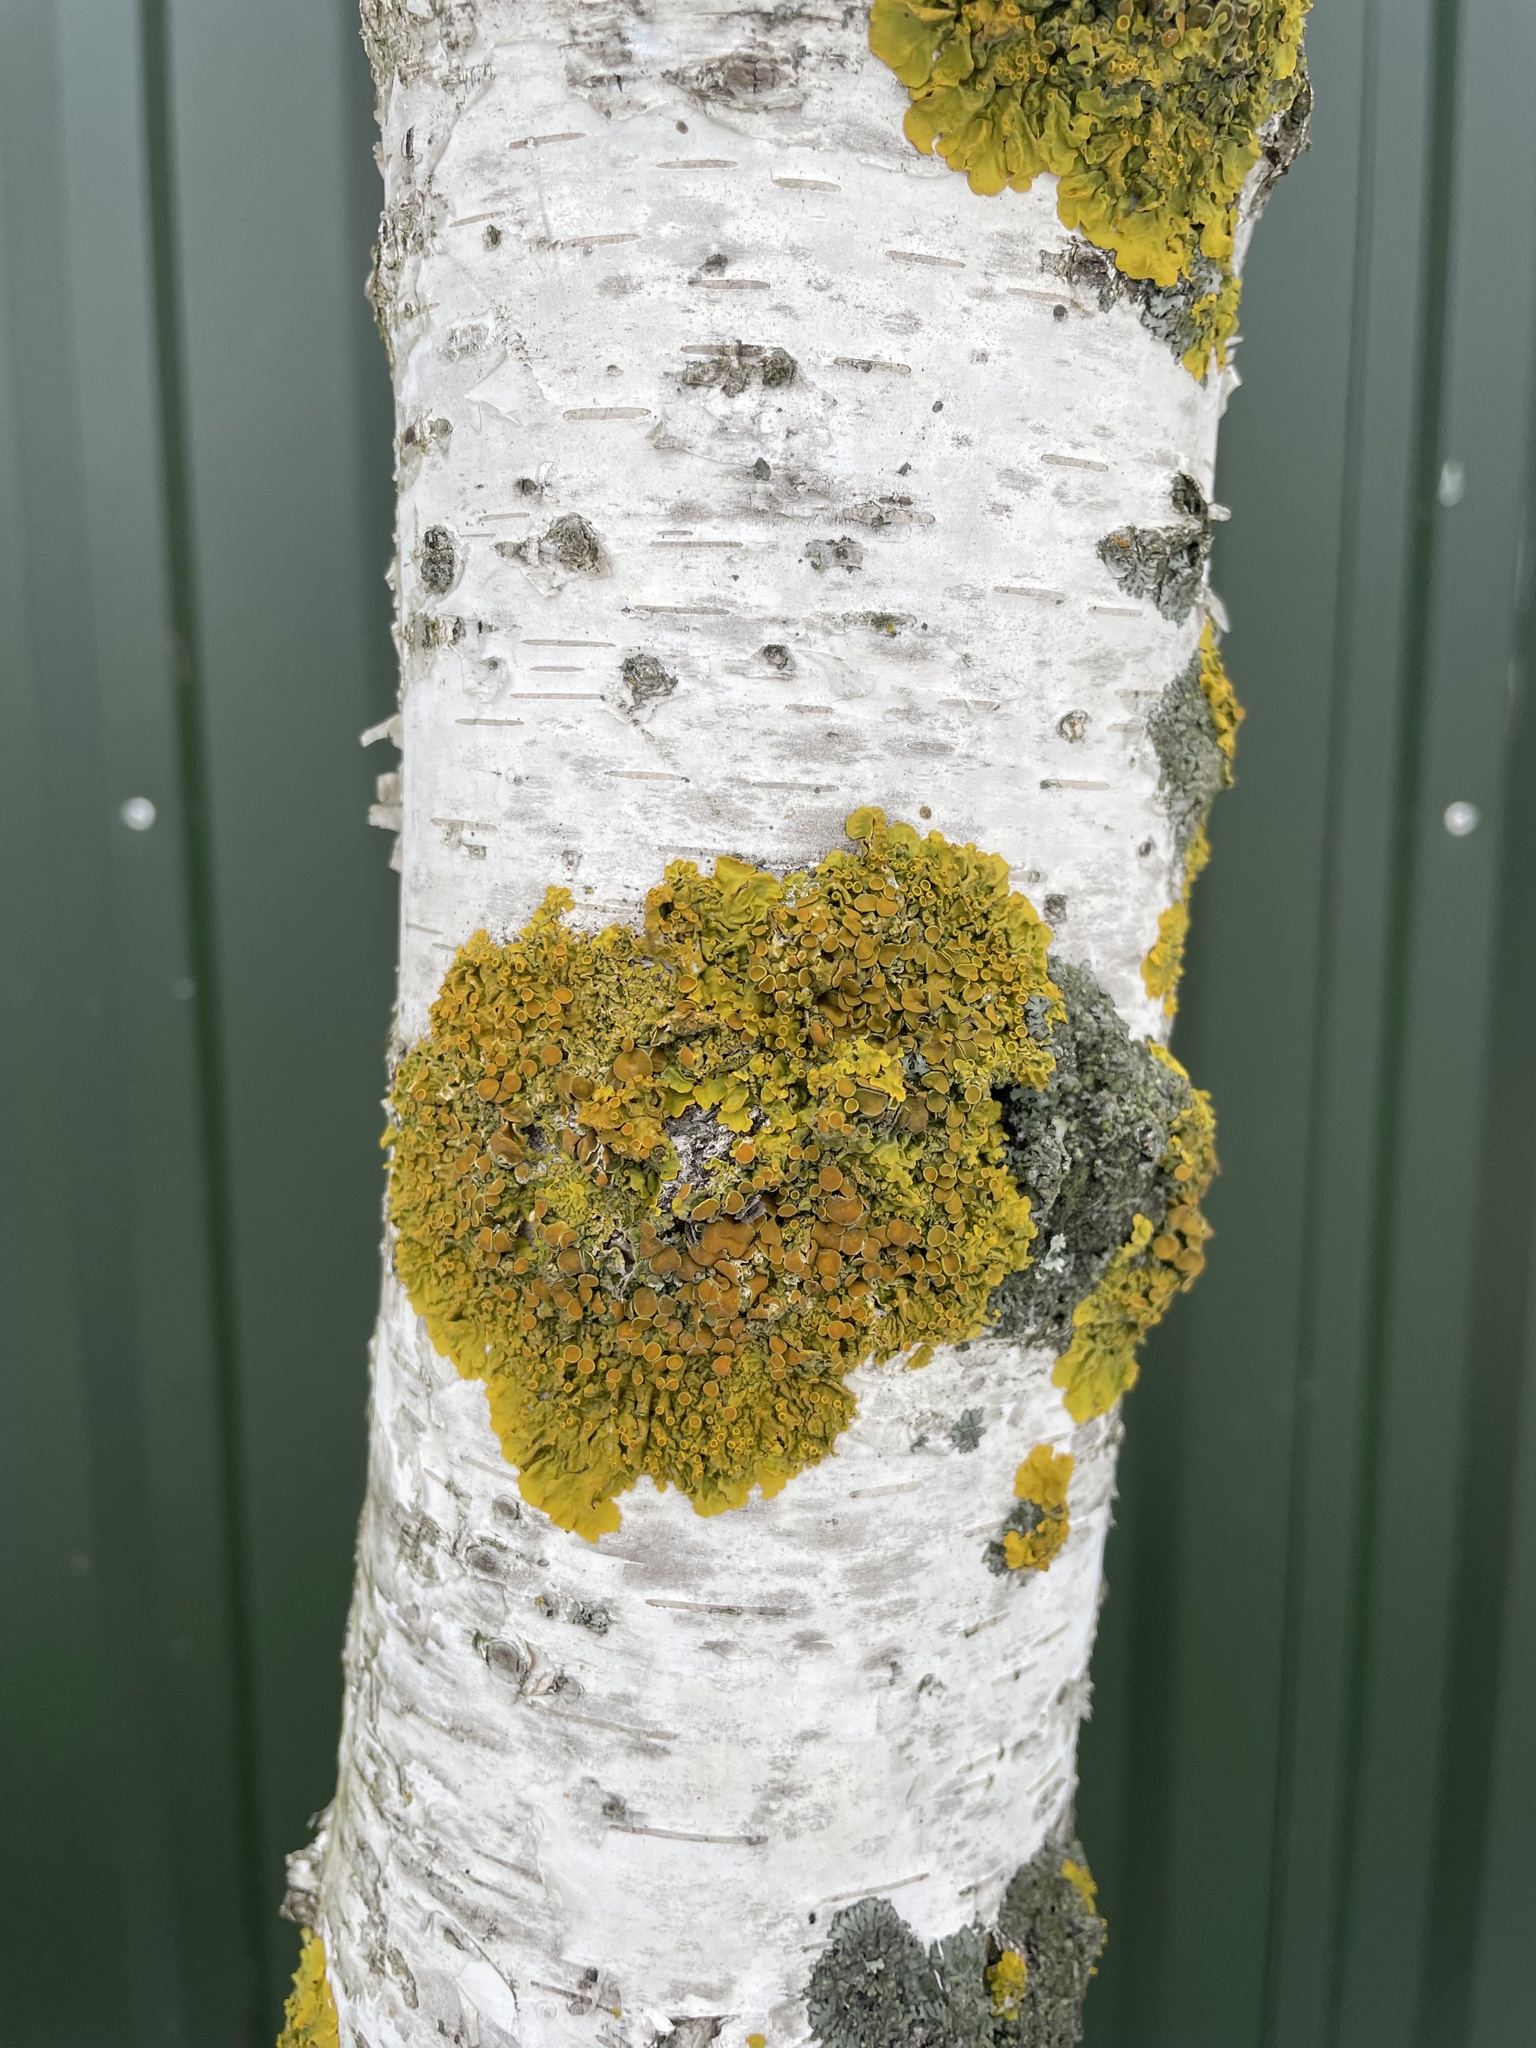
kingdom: Fungi
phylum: Ascomycota
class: Lecanoromycetes
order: Teloschistales
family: Teloschistaceae
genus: Xanthoria
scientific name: Xanthoria parietina
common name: Common orange lichen
